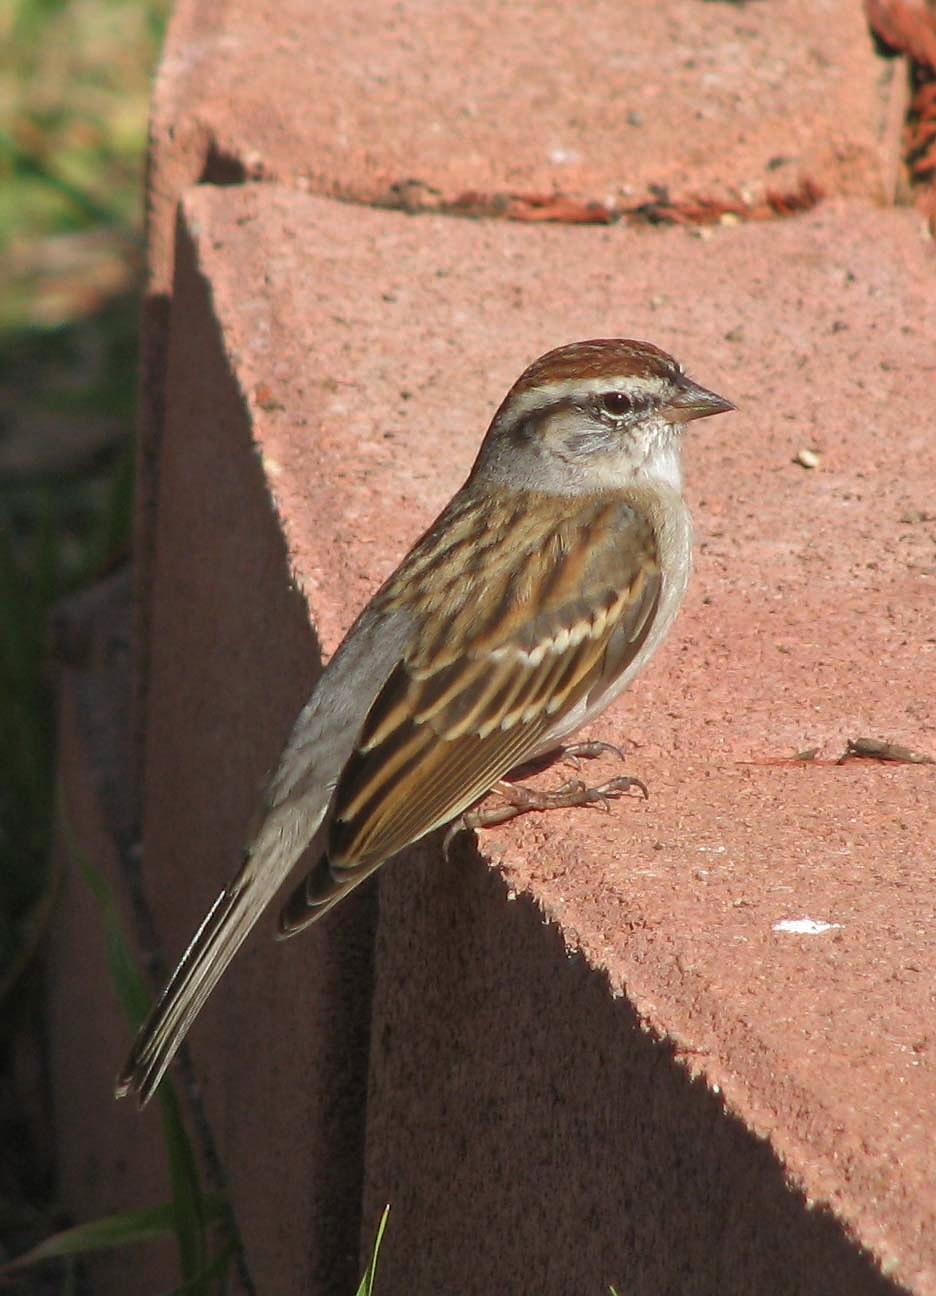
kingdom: Animalia
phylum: Chordata
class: Aves
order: Passeriformes
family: Passerellidae
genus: Spizella
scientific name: Spizella passerina
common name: Chipping sparrow
